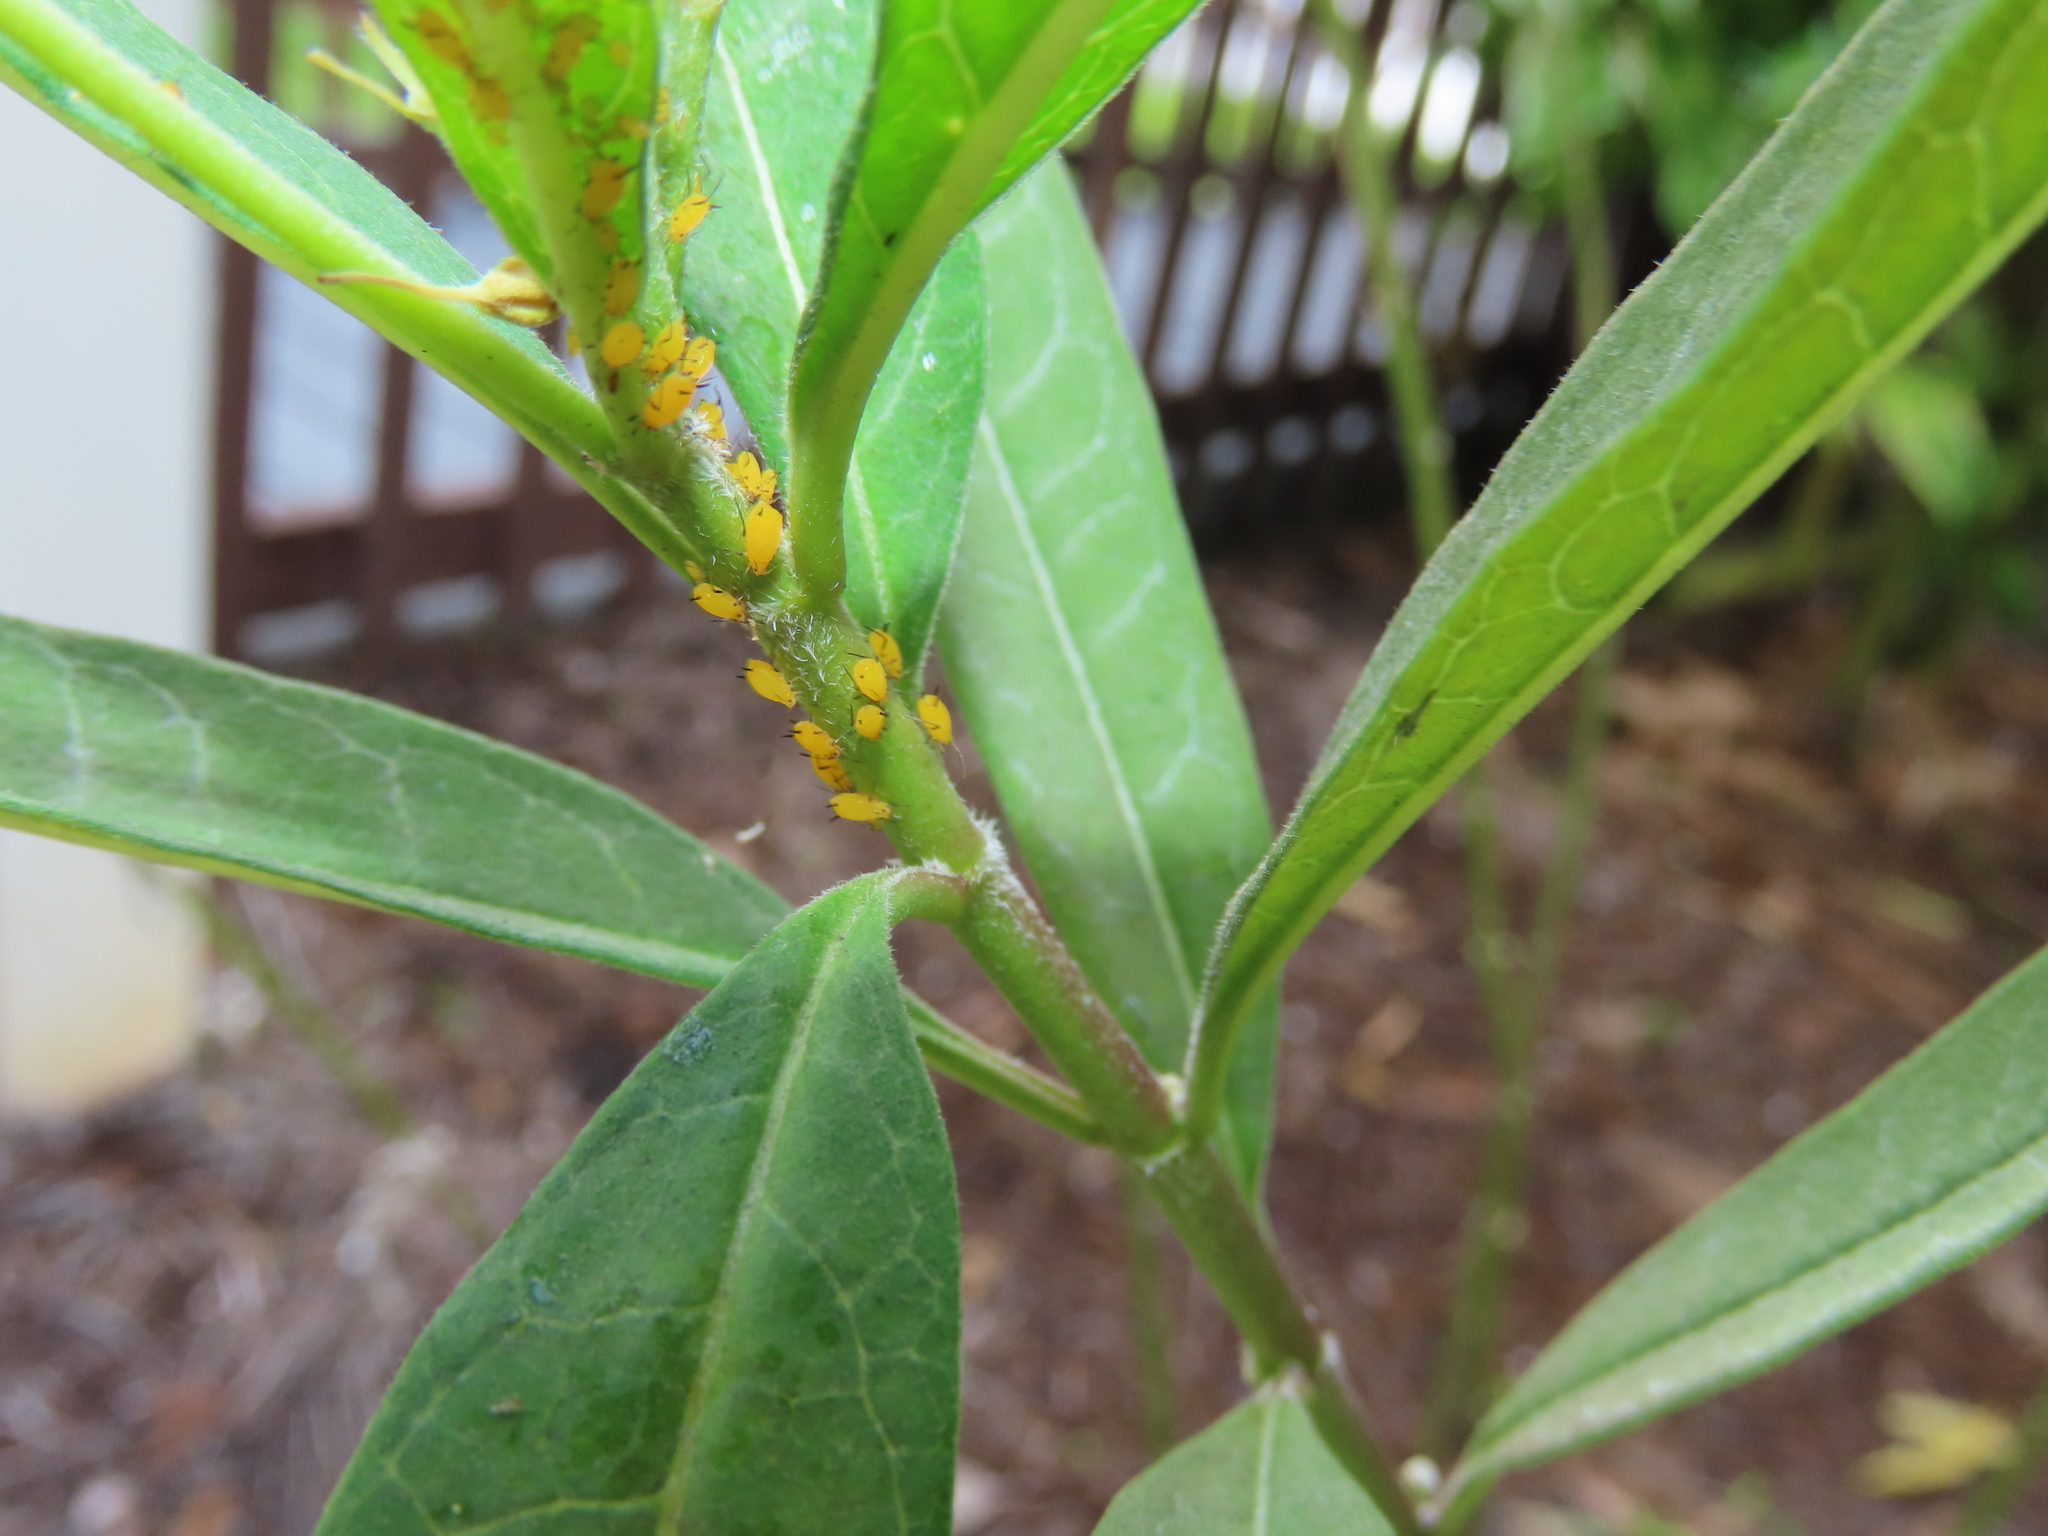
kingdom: Animalia
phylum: Arthropoda
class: Insecta
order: Hemiptera
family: Aphididae
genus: Aphis
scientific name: Aphis nerii
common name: Oleander aphid
